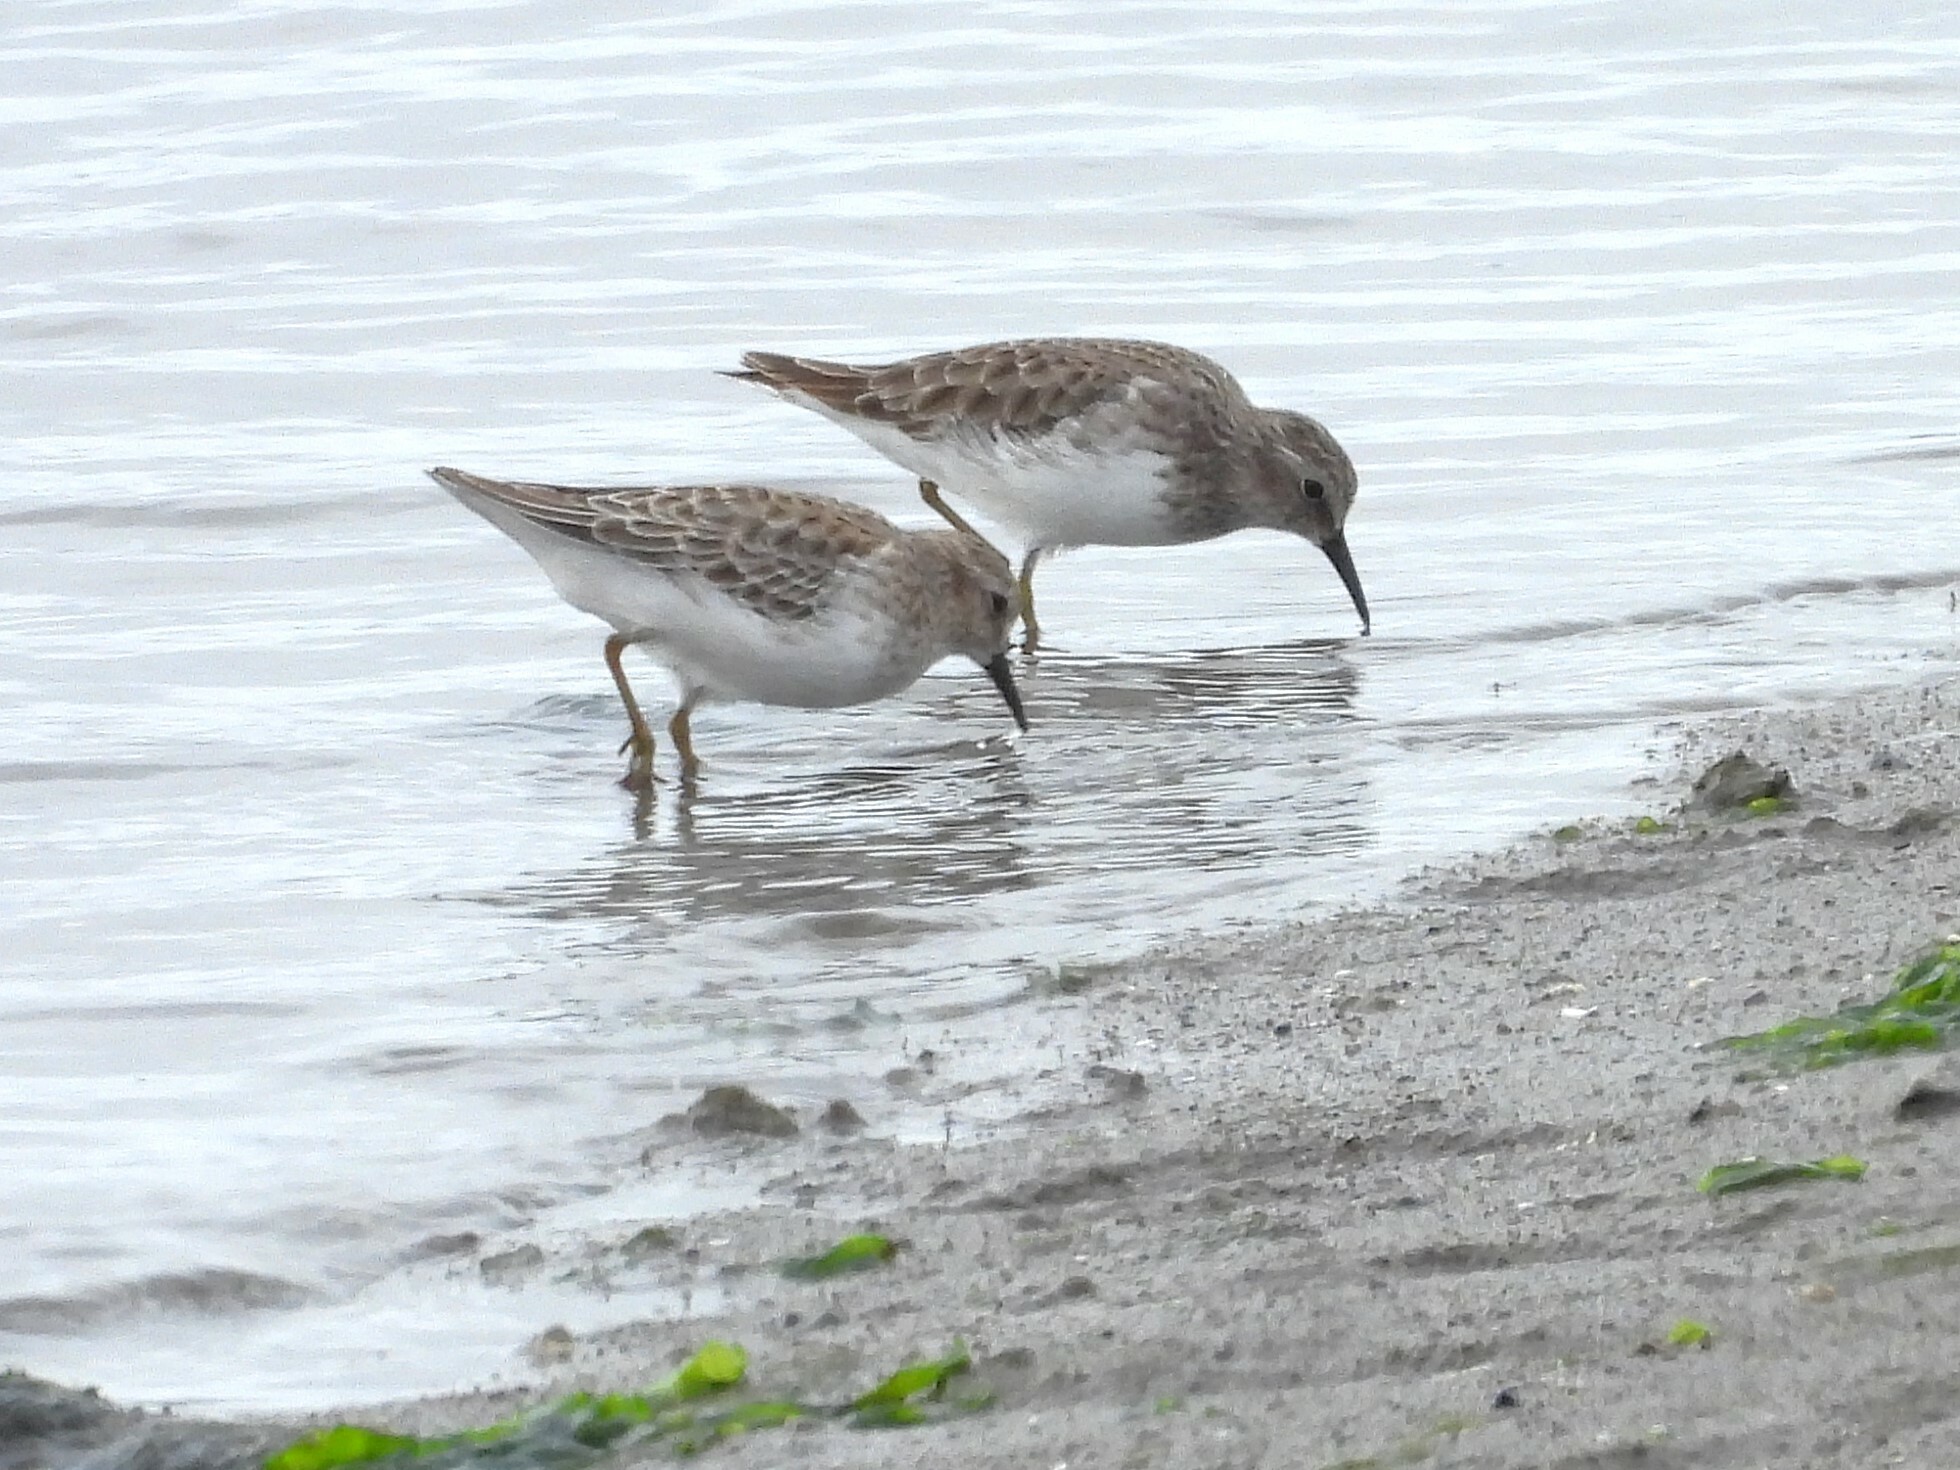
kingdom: Animalia
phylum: Chordata
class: Aves
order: Charadriiformes
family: Scolopacidae
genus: Calidris
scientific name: Calidris minutilla
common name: Least sandpiper
